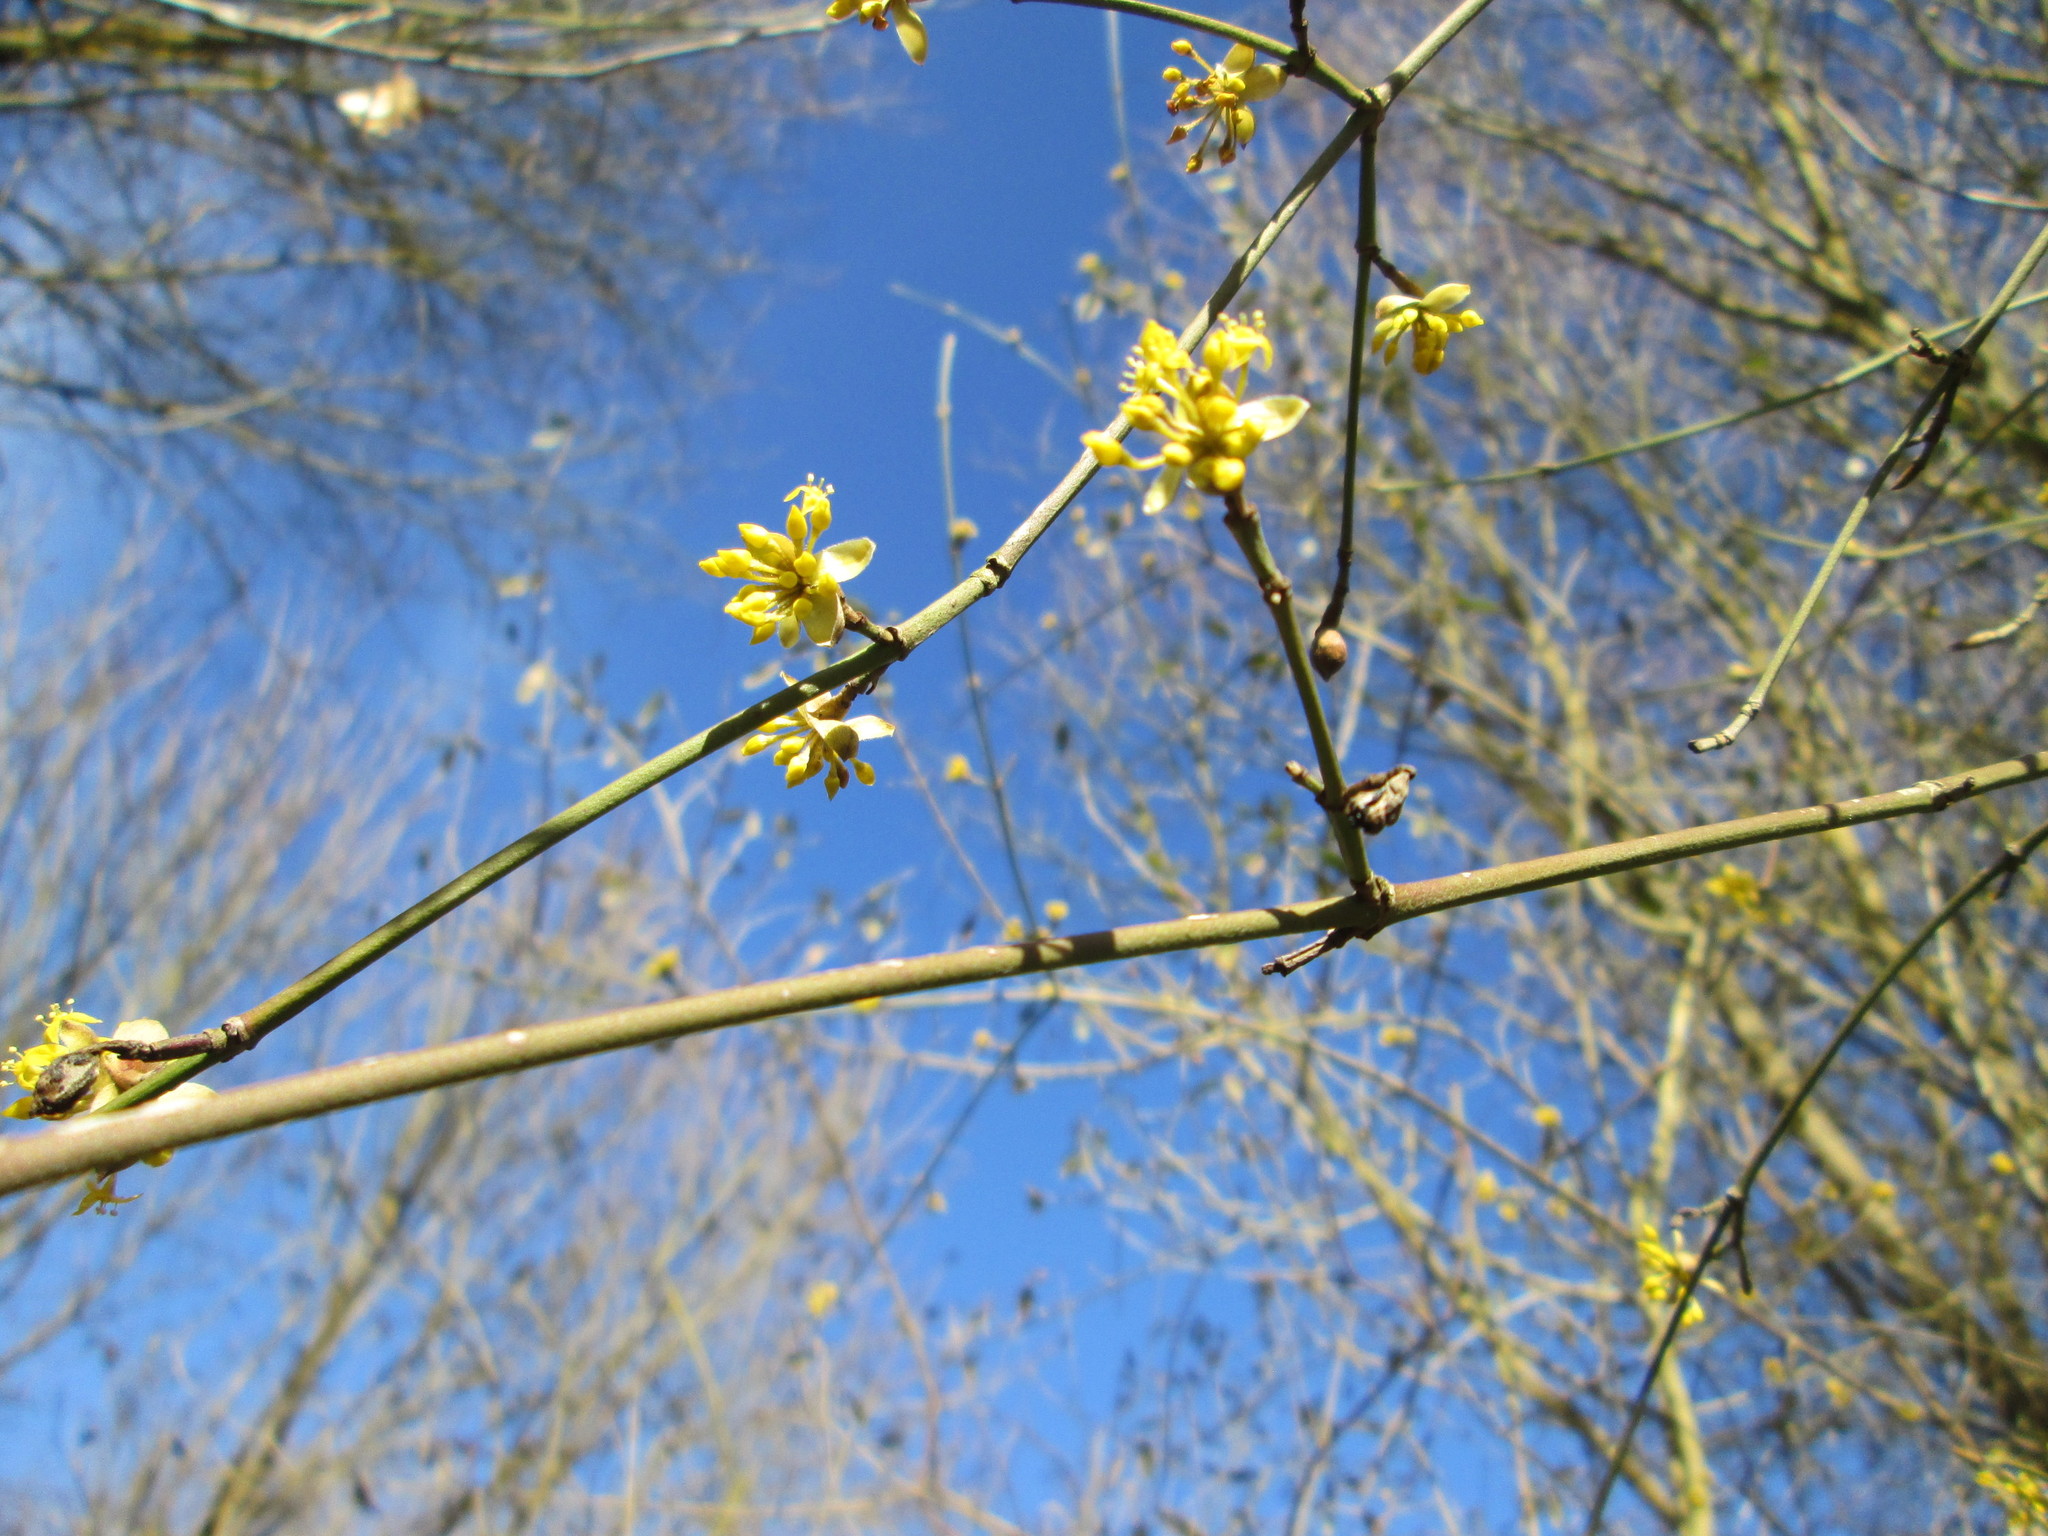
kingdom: Plantae
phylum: Tracheophyta
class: Magnoliopsida
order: Cornales
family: Cornaceae
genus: Cornus
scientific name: Cornus mas
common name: Cornelian-cherry
